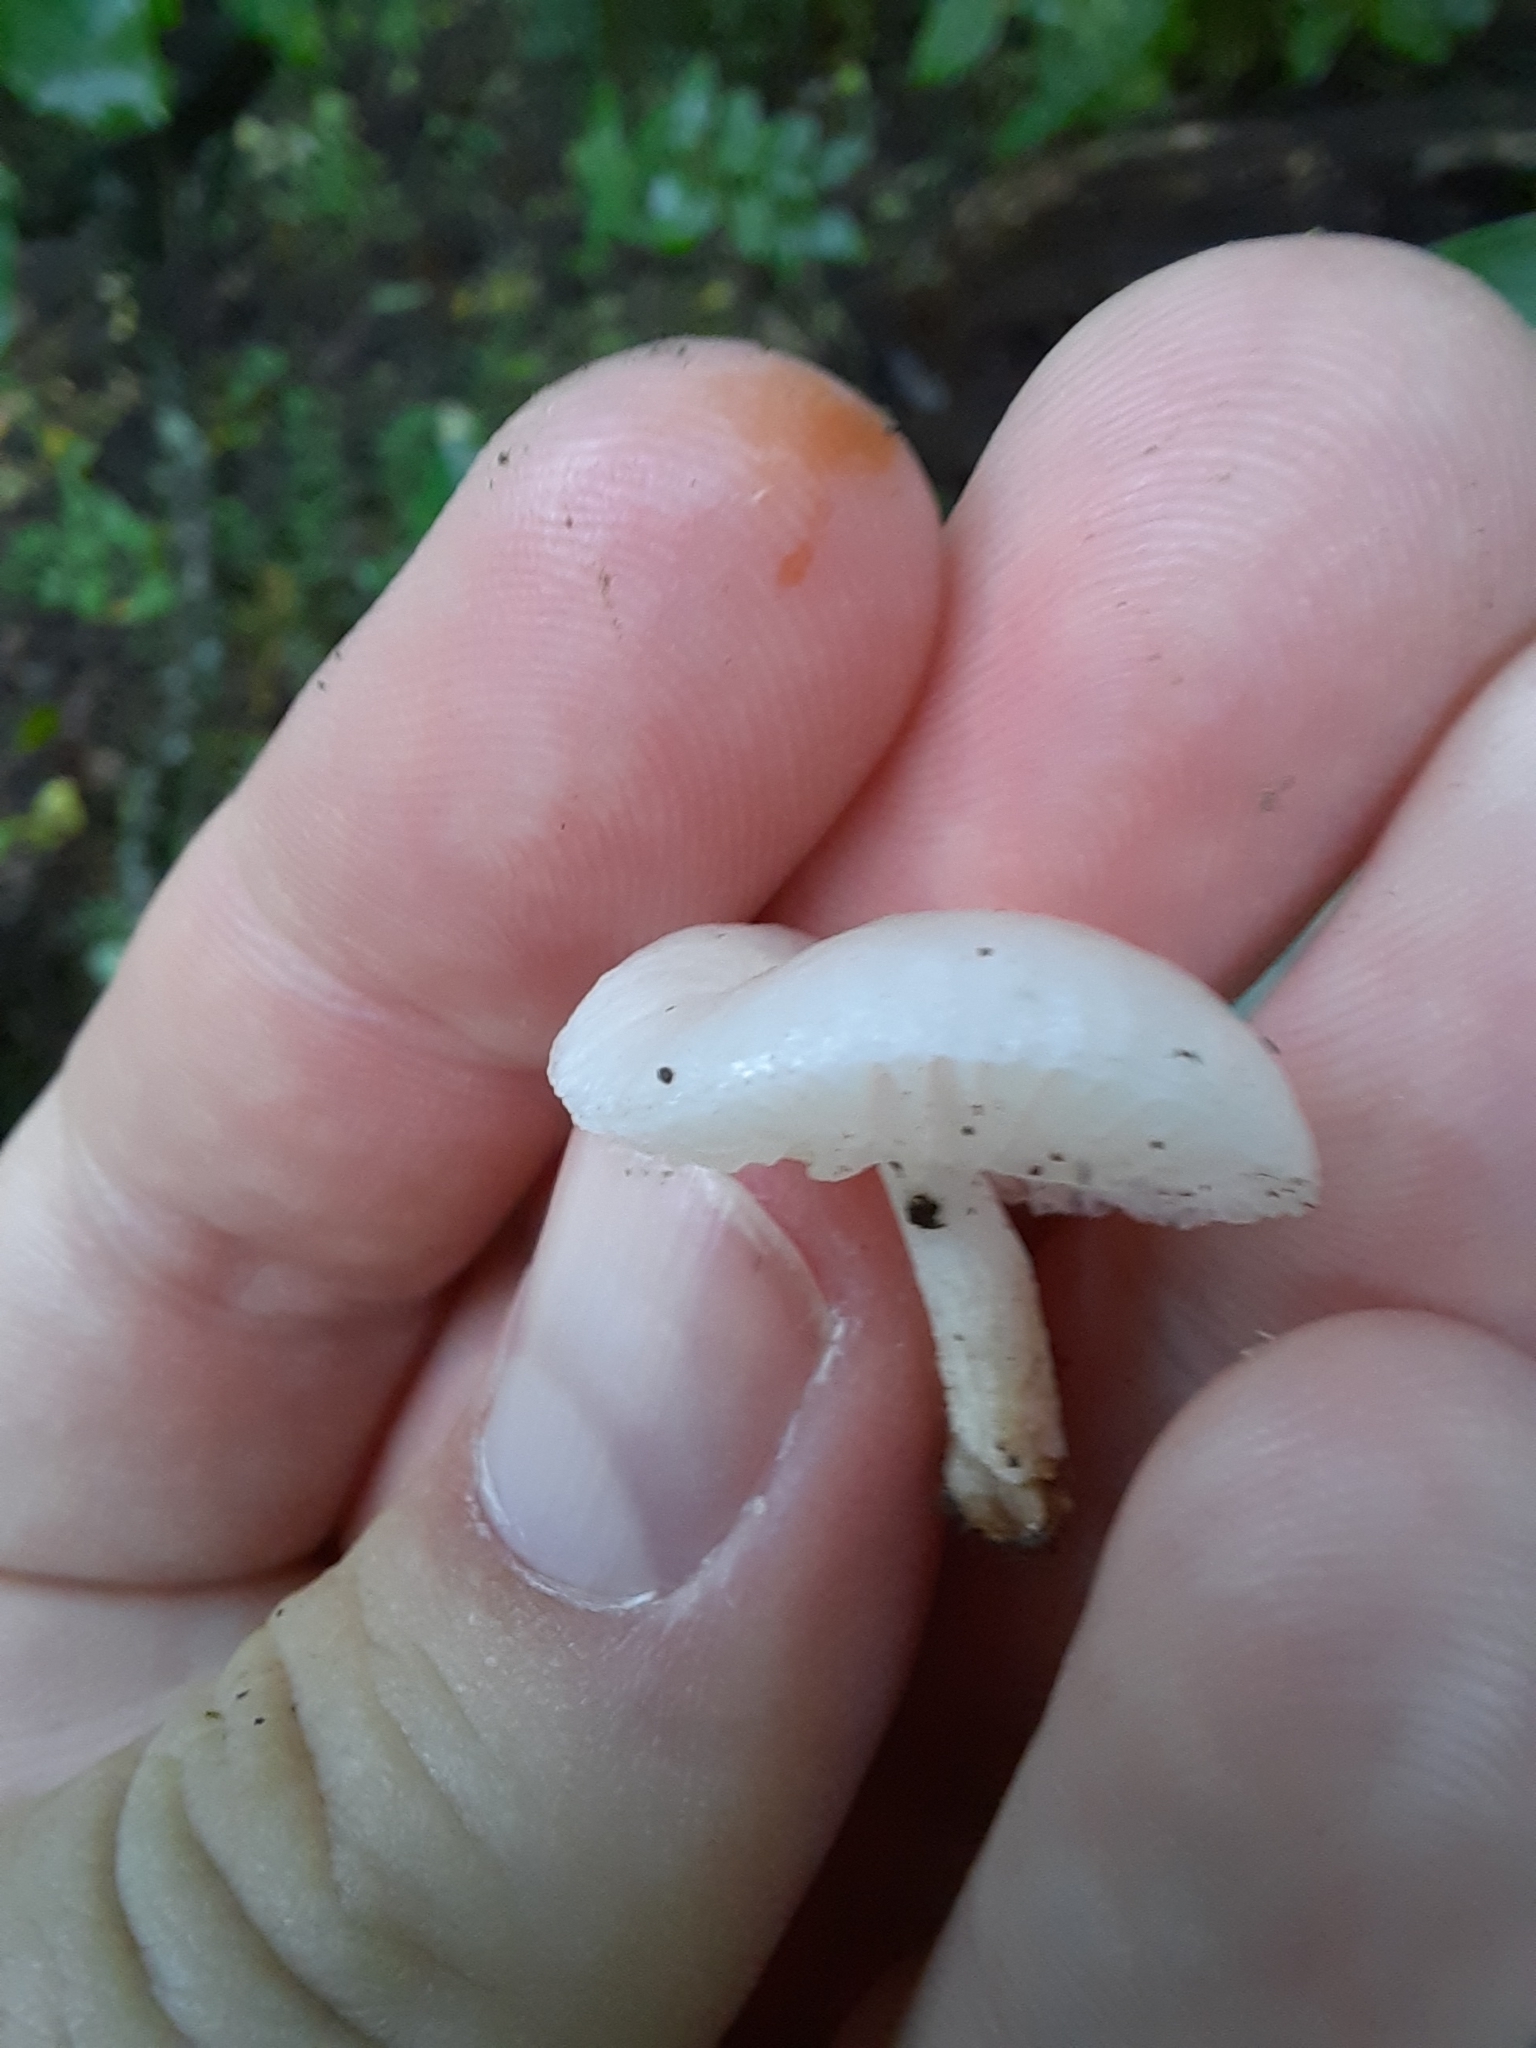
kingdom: Fungi
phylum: Basidiomycota
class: Agaricomycetes
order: Agaricales
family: Physalacriaceae
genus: Oudemansiella
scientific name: Oudemansiella australis
